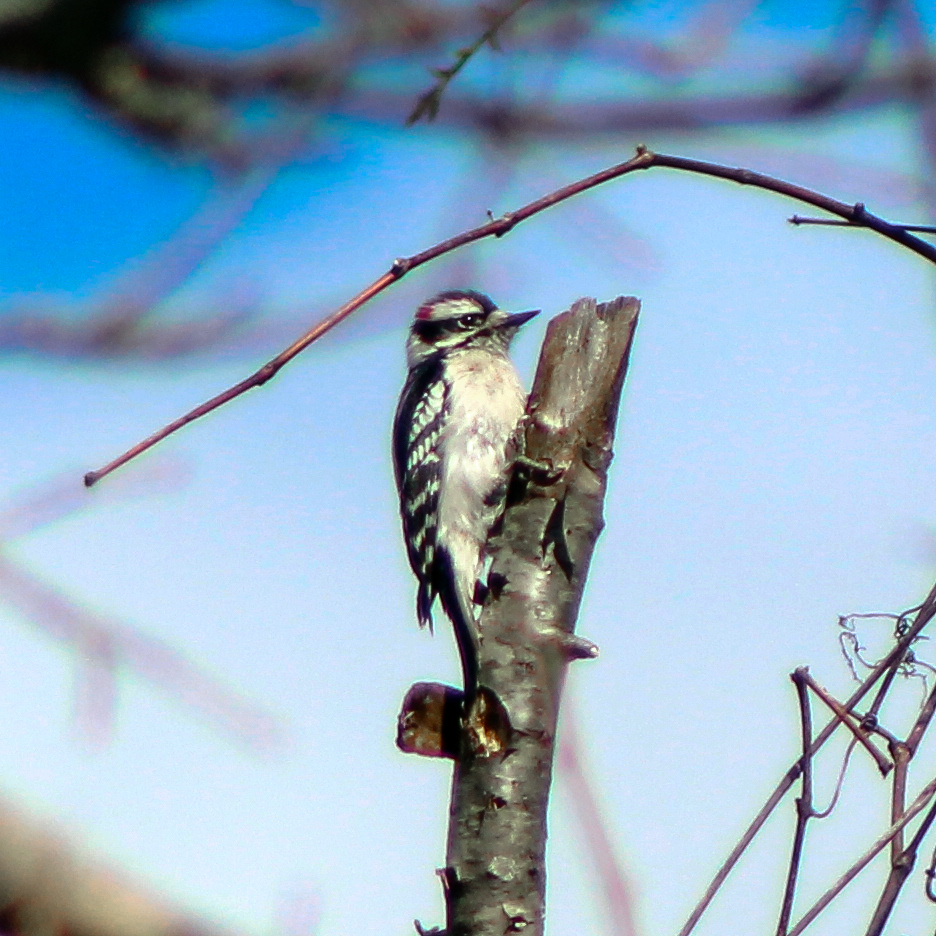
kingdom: Animalia
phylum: Chordata
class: Aves
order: Piciformes
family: Picidae
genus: Dryobates
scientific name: Dryobates pubescens
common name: Downy woodpecker
